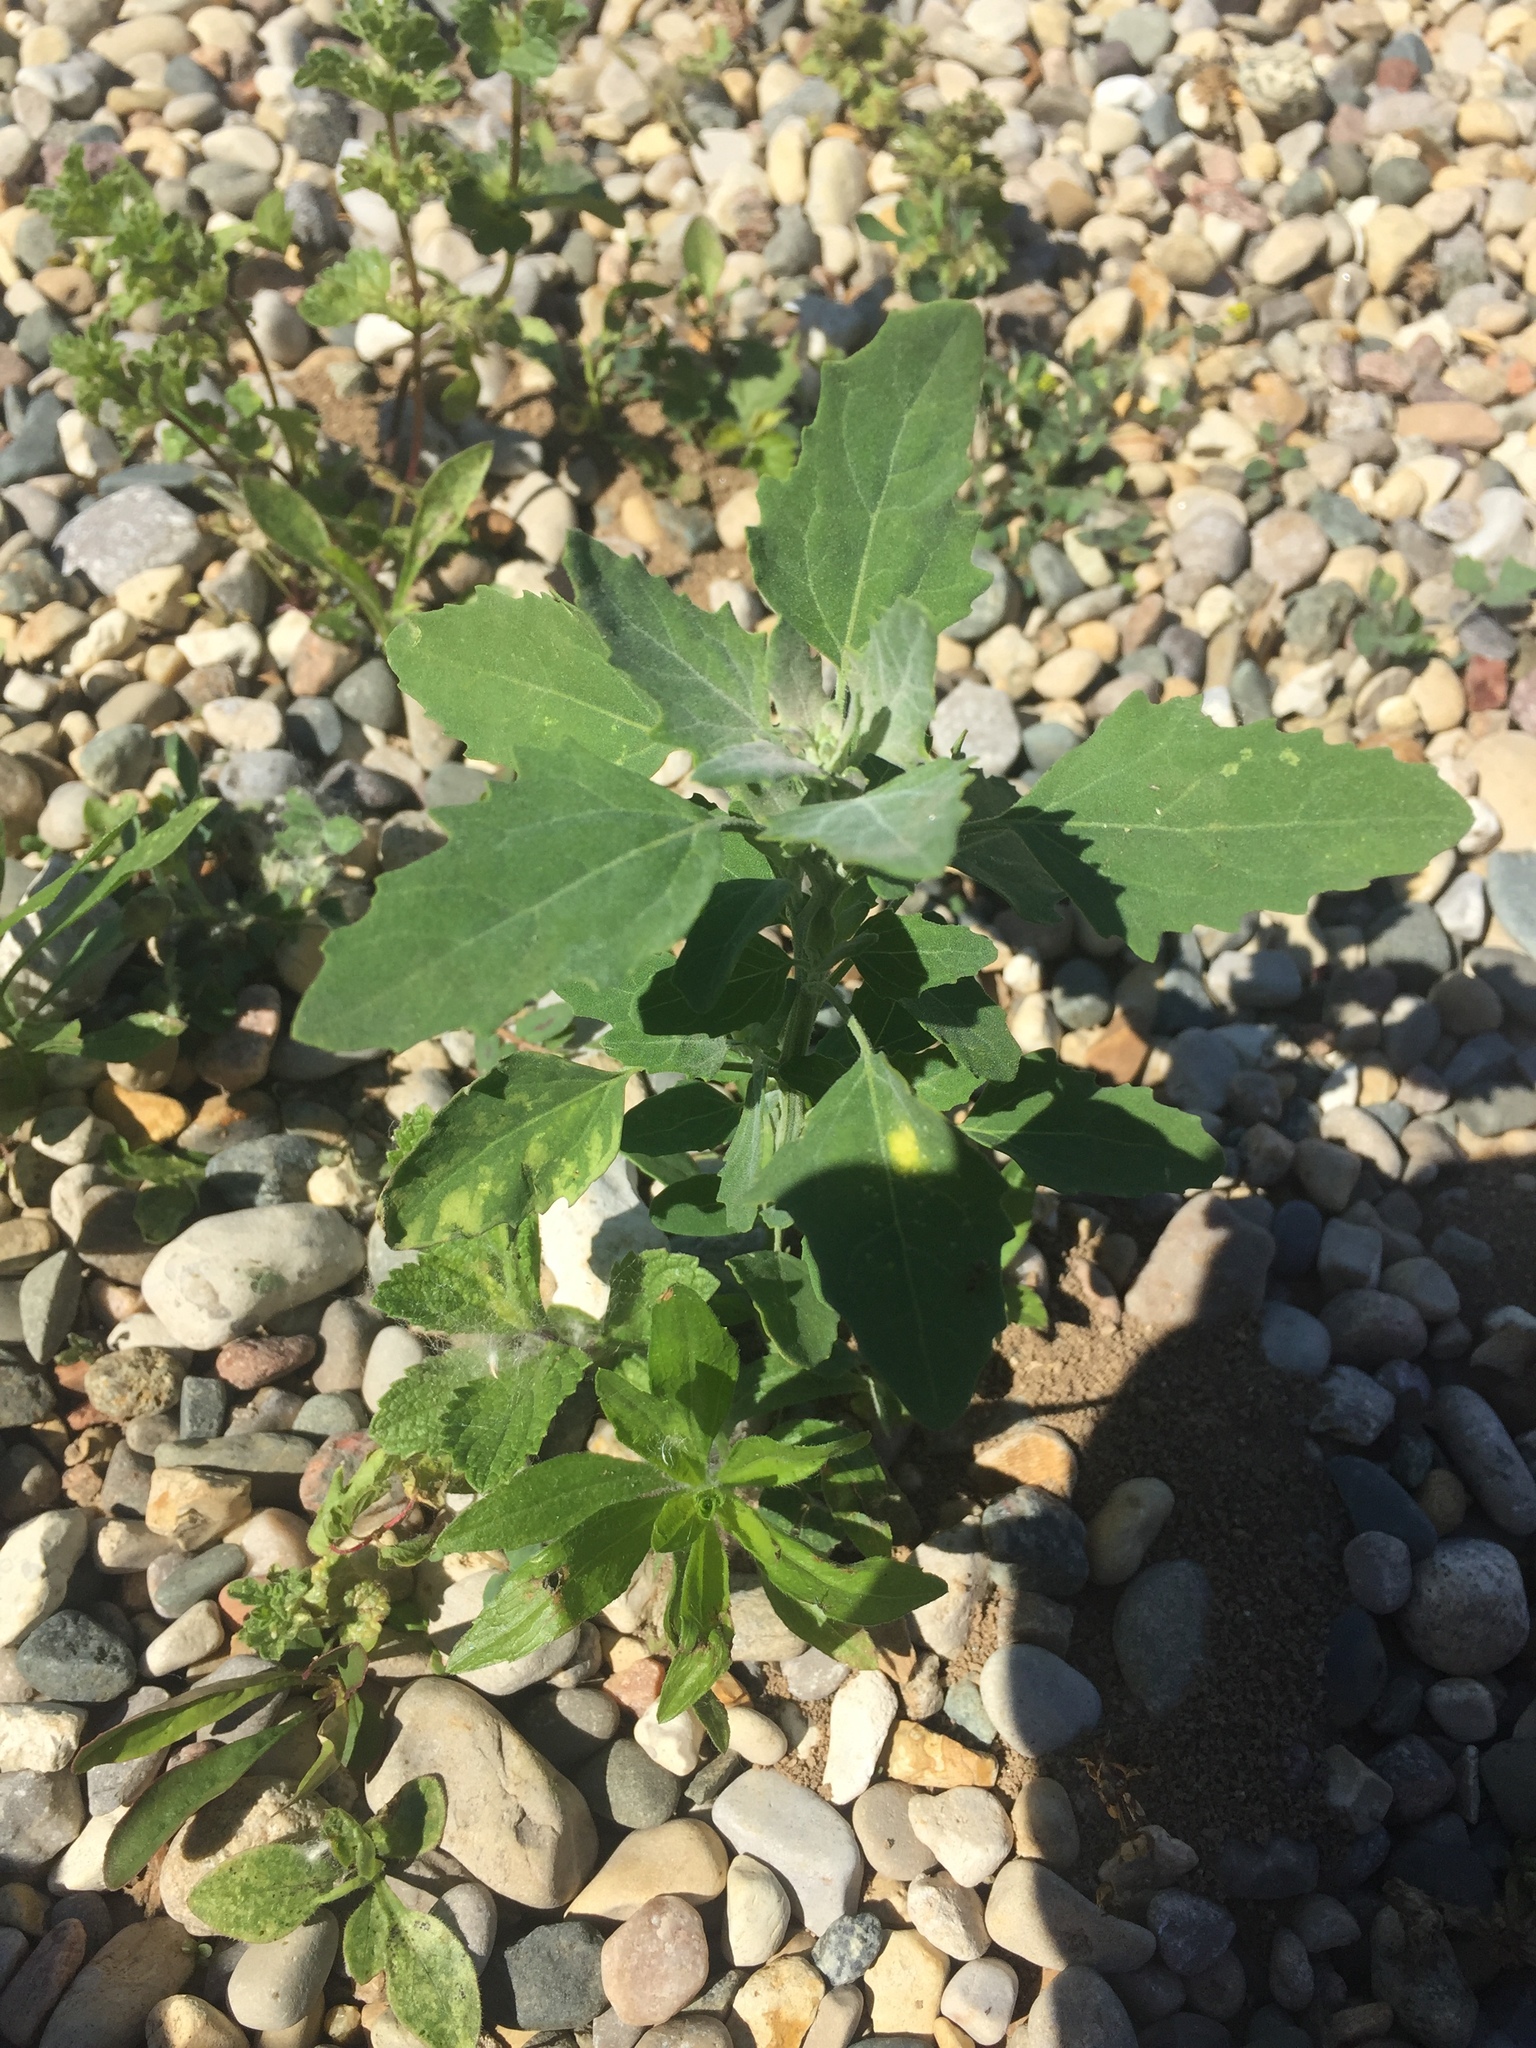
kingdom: Plantae
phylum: Tracheophyta
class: Magnoliopsida
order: Caryophyllales
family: Amaranthaceae
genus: Chenopodium
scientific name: Chenopodium album
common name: Fat-hen
